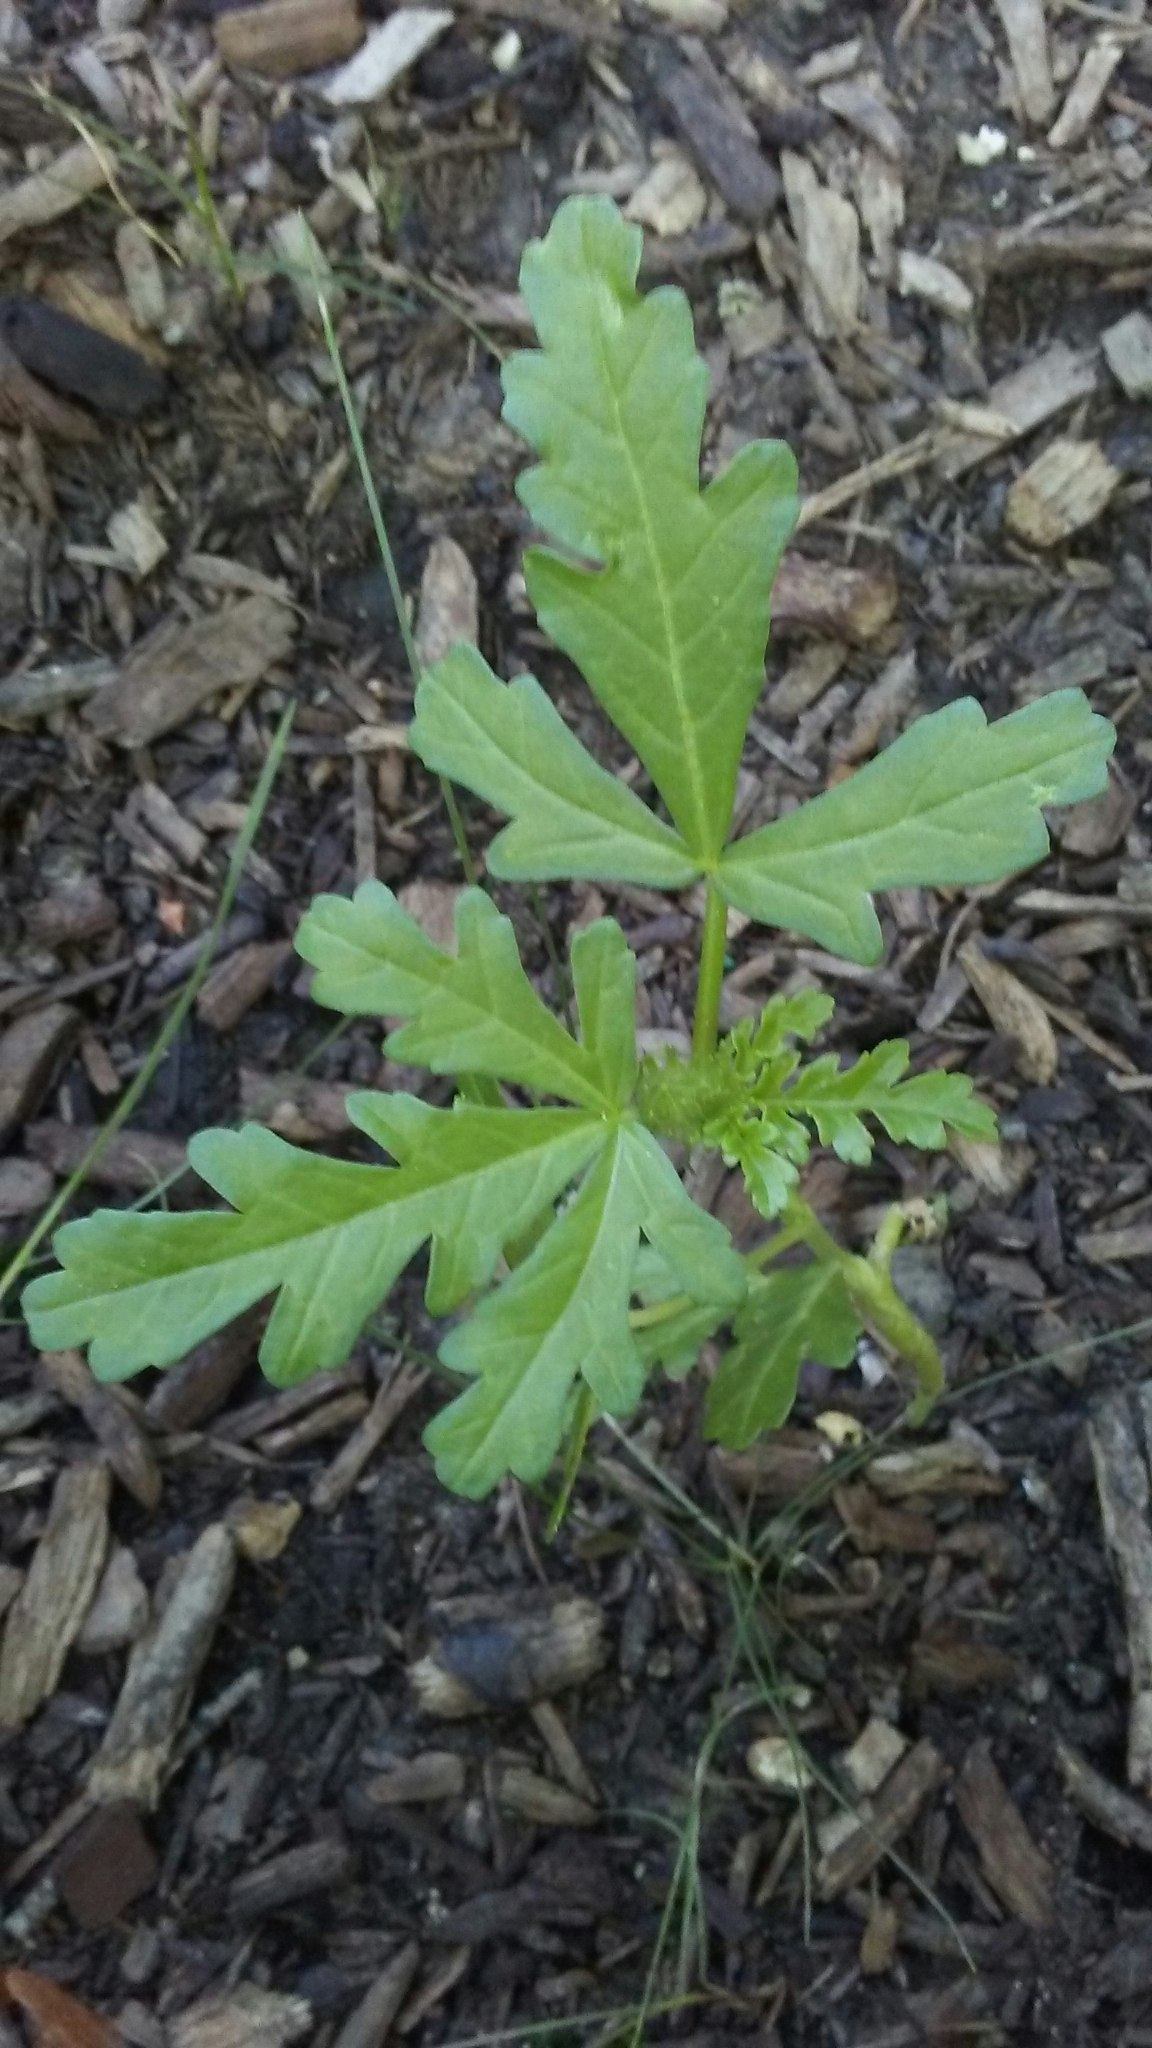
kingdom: Plantae
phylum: Tracheophyta
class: Magnoliopsida
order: Malvales
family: Malvaceae
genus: Hibiscus
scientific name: Hibiscus trionum
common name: Bladder ketmia
